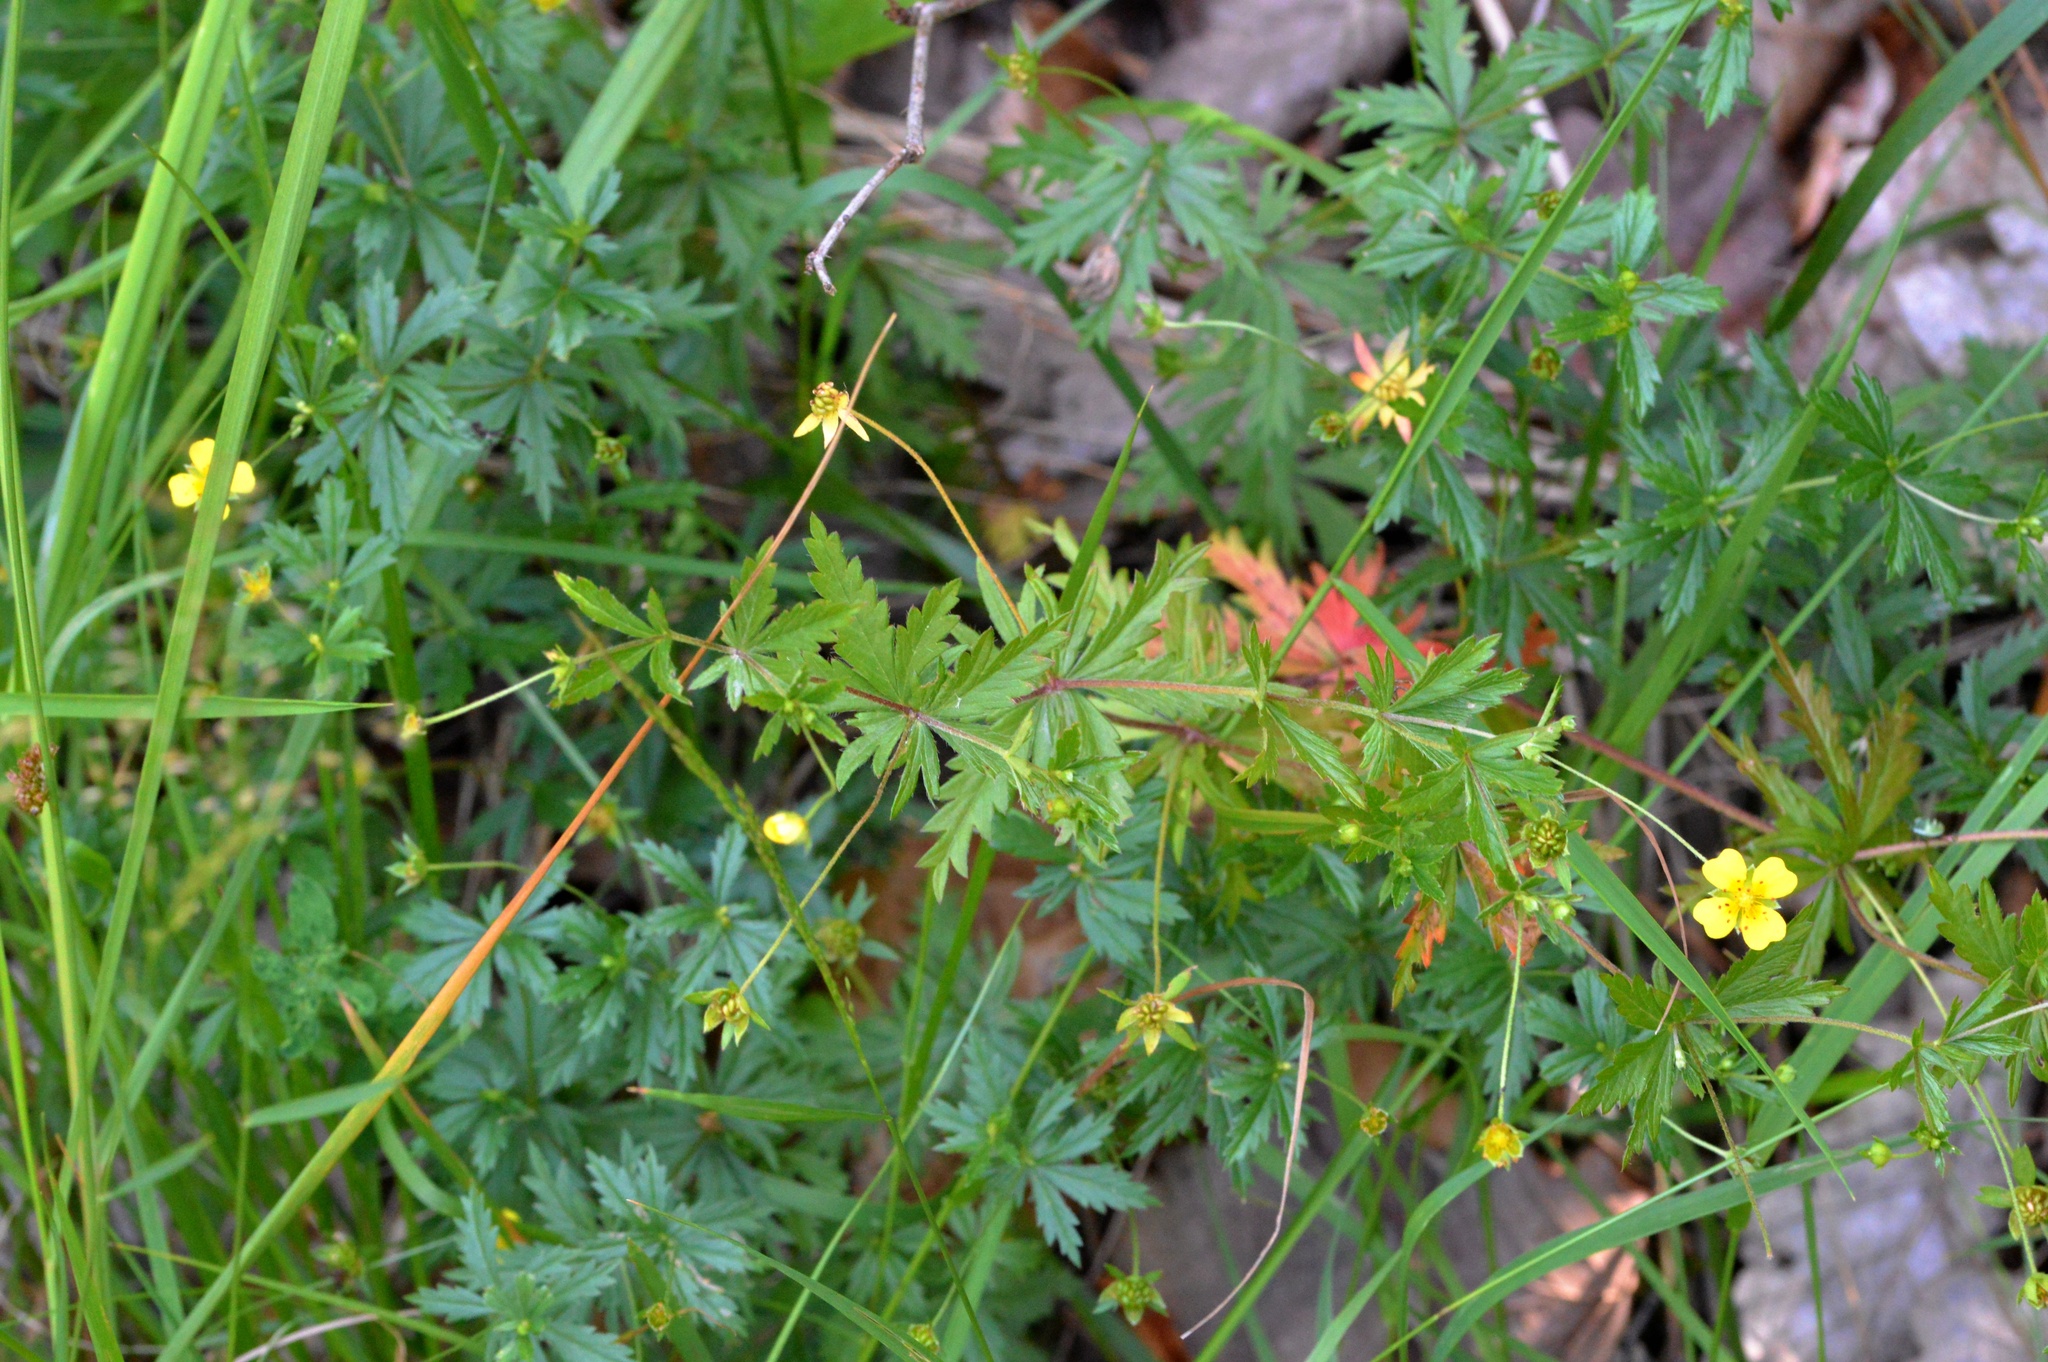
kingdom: Plantae
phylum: Tracheophyta
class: Magnoliopsida
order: Rosales
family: Rosaceae
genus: Potentilla
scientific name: Potentilla erecta
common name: Tormentil
